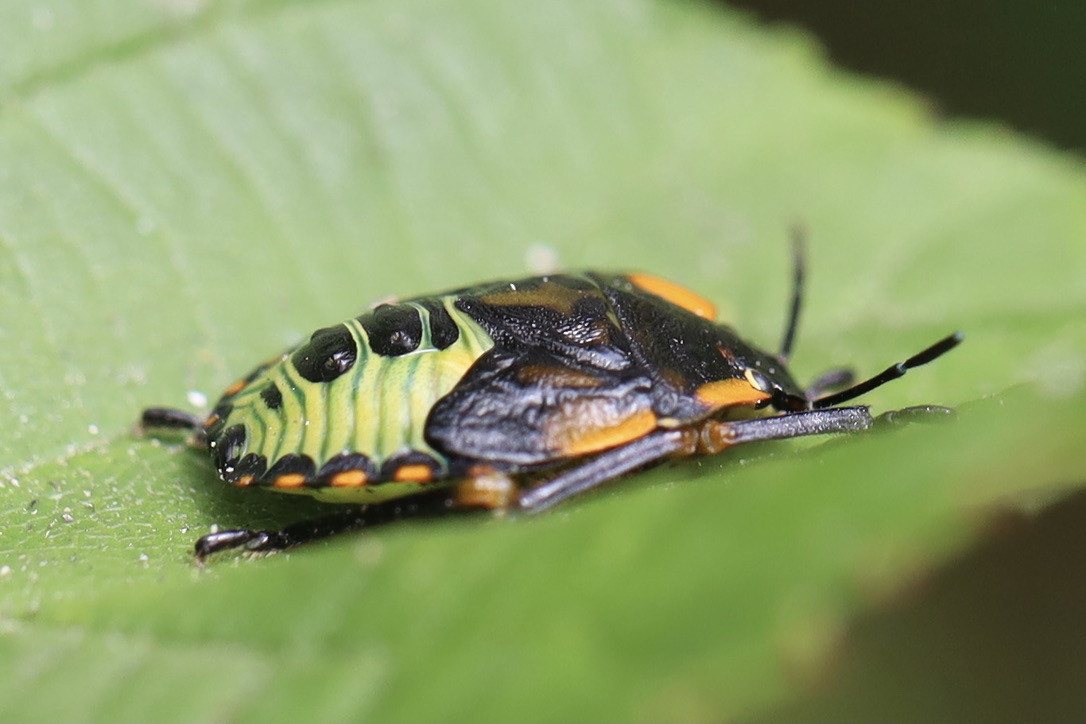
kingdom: Animalia
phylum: Arthropoda
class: Insecta
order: Hemiptera
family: Pentatomidae
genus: Chinavia
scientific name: Chinavia hilaris
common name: Green stink bug
